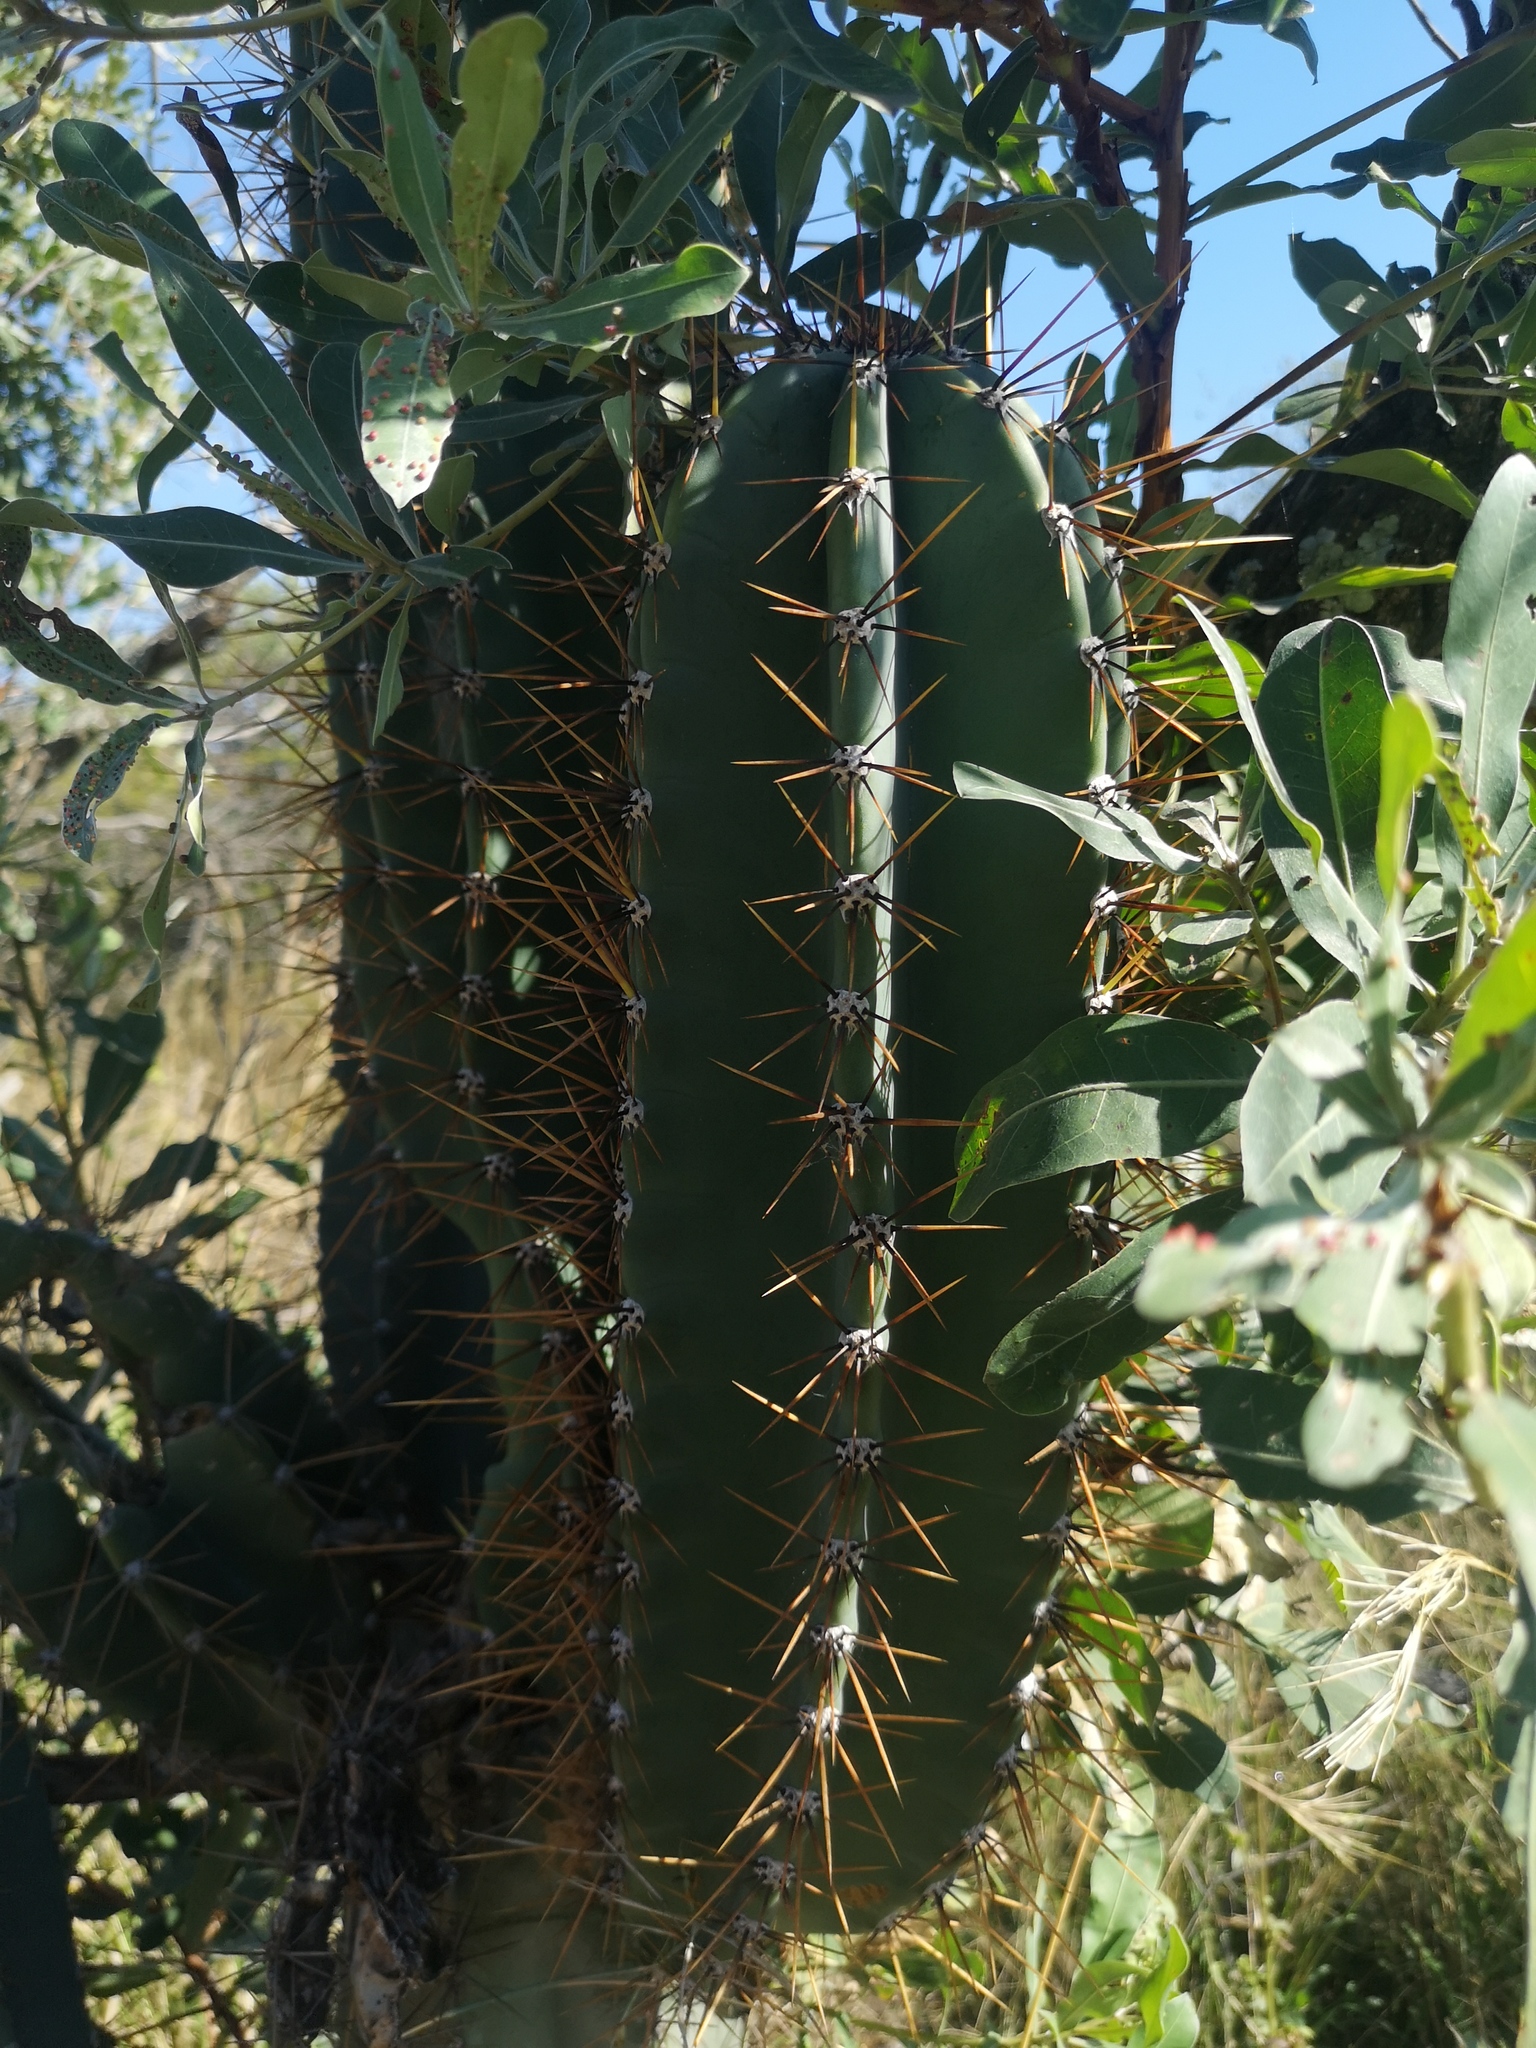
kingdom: Plantae
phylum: Tracheophyta
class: Magnoliopsida
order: Caryophyllales
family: Cactaceae
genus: Cereus
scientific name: Cereus jamacaru
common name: Queen-of-the-night
